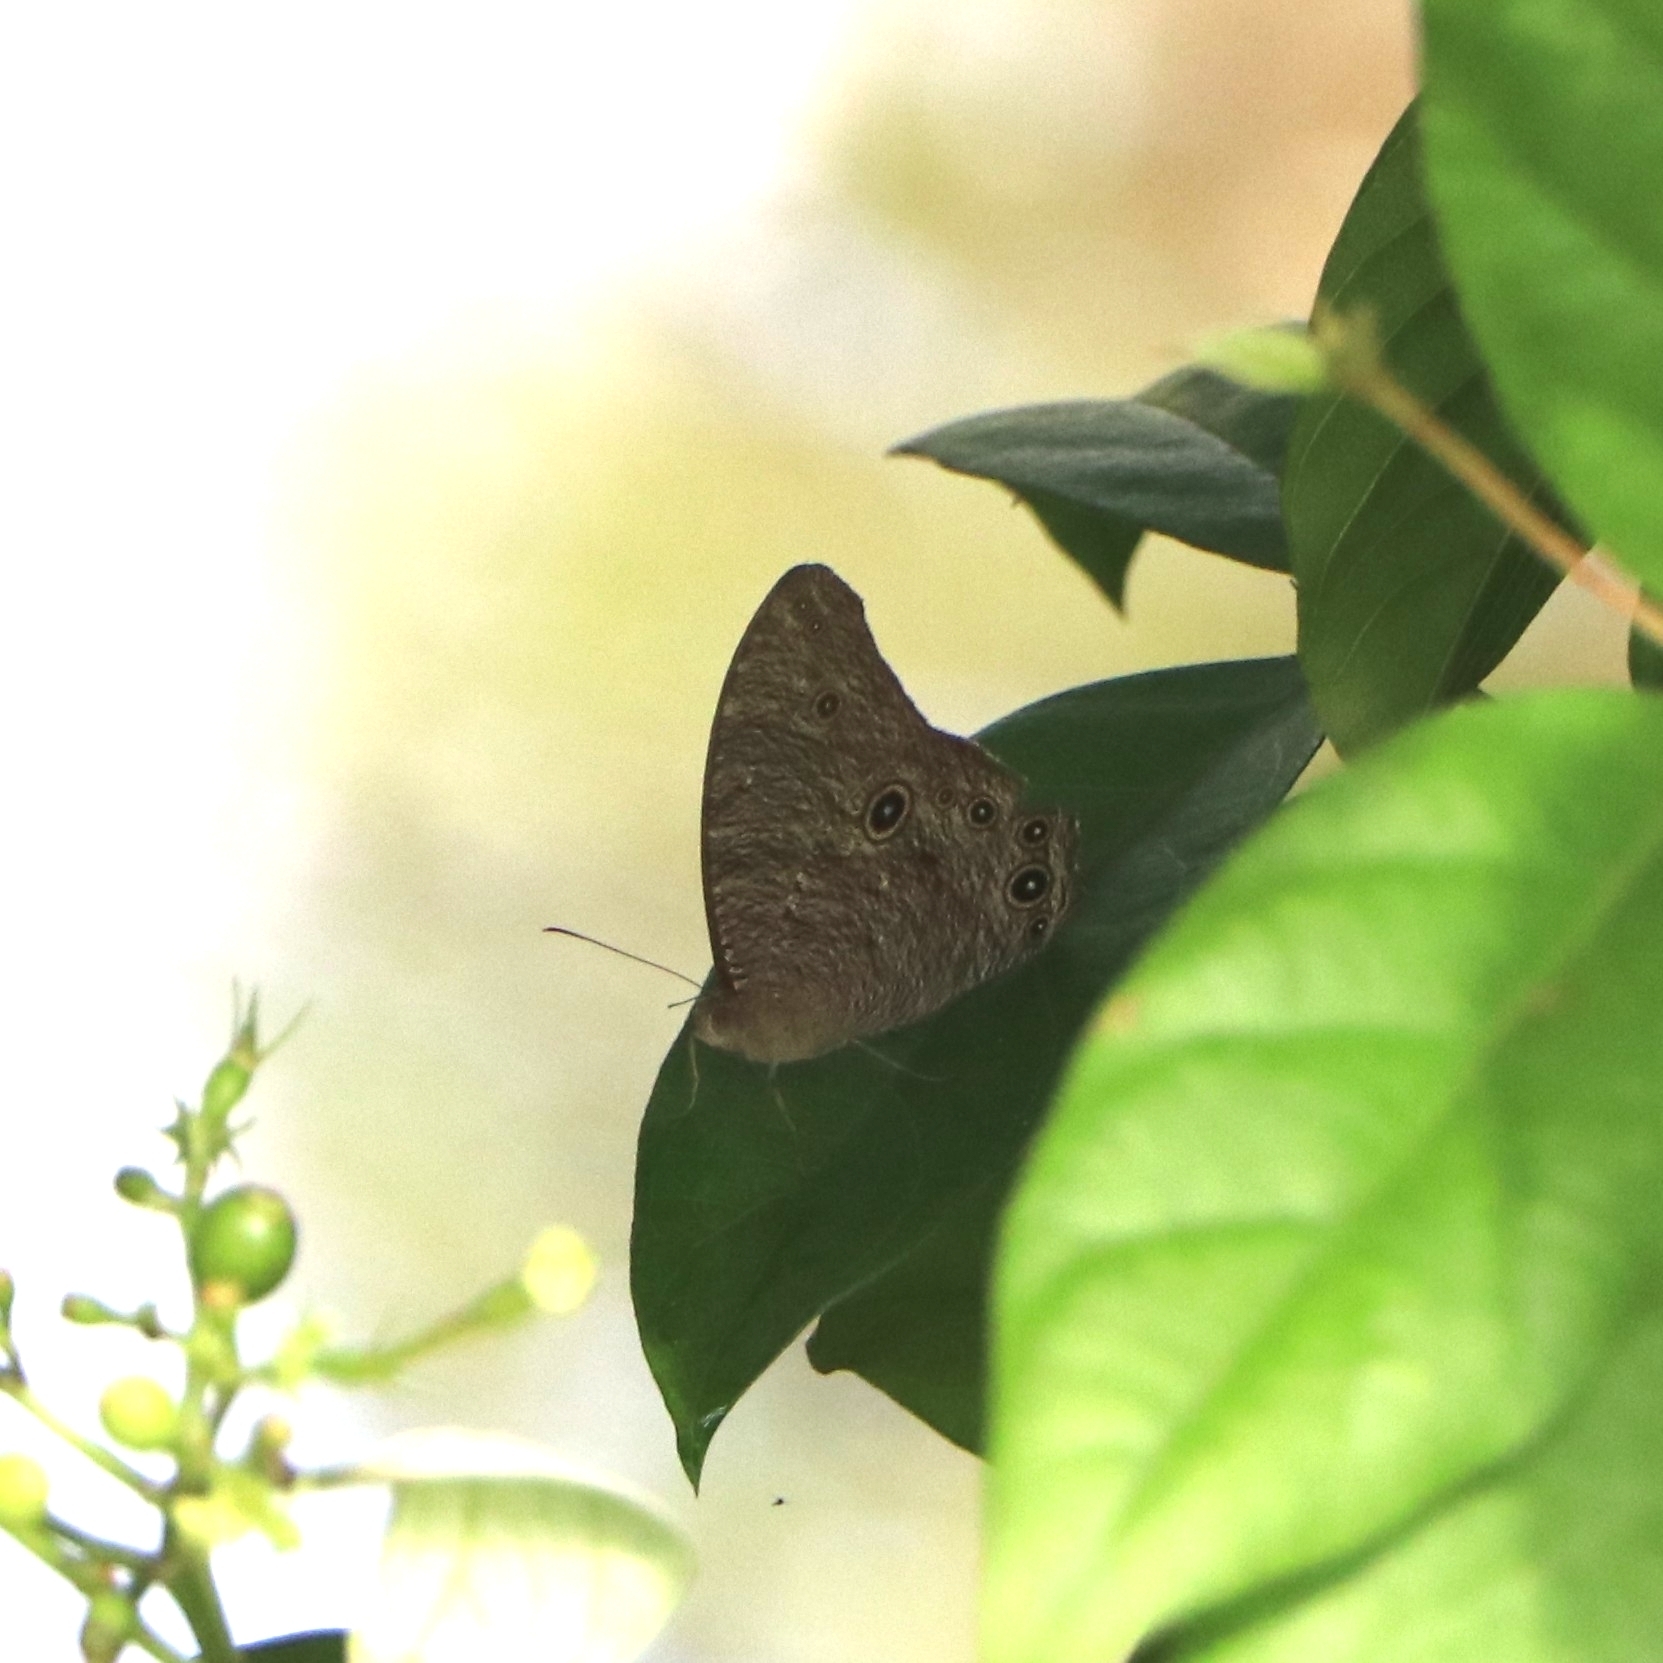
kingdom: Animalia
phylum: Arthropoda
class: Insecta
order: Lepidoptera
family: Nymphalidae
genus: Melanitis
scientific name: Melanitis leda
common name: Twilight brown
